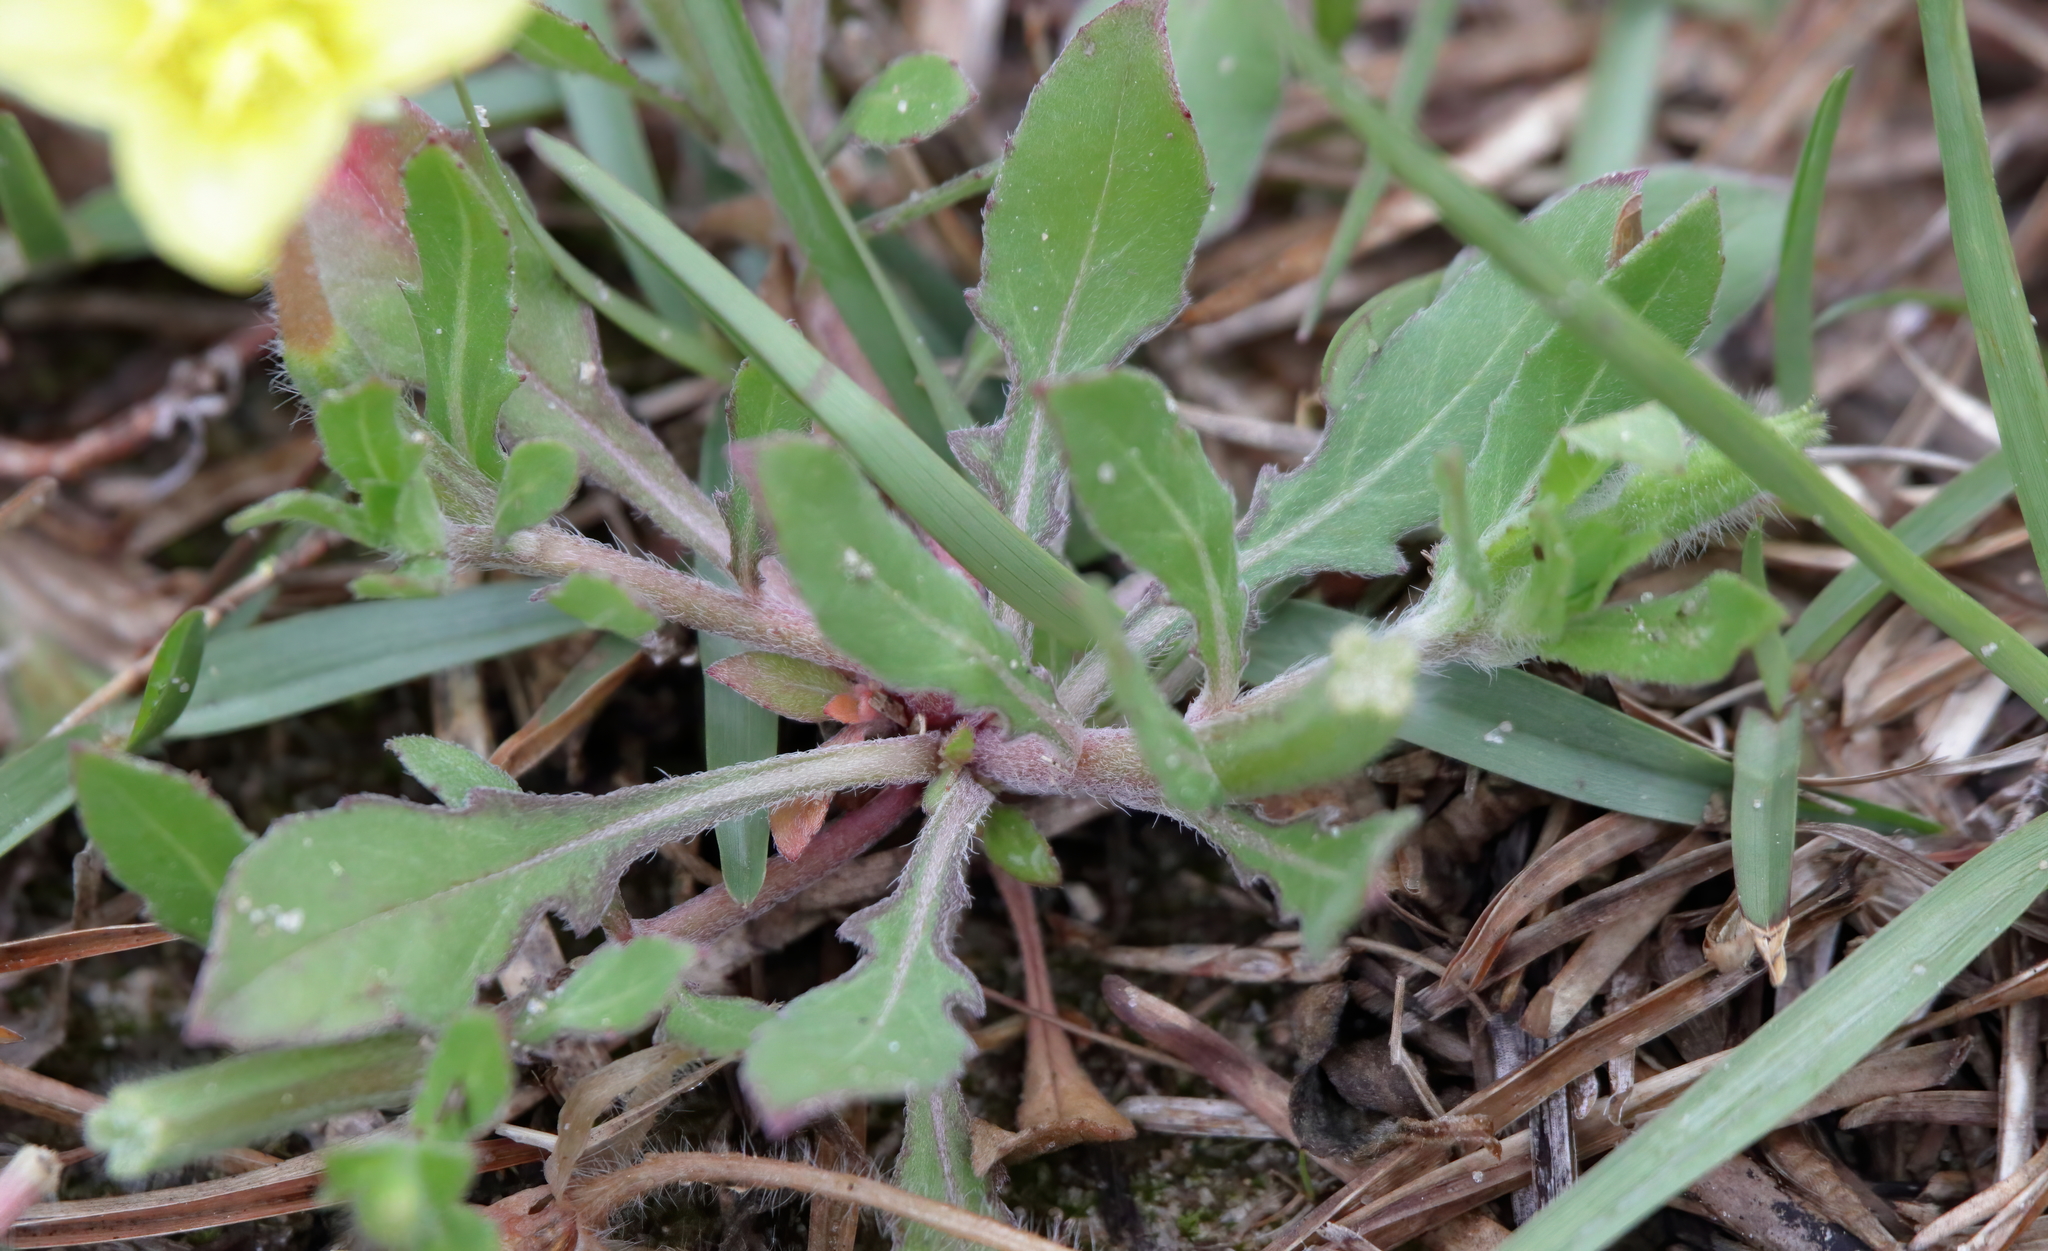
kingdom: Plantae
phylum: Tracheophyta
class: Magnoliopsida
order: Myrtales
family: Onagraceae
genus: Oenothera
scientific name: Oenothera laciniata
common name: Cut-leaved evening-primrose
